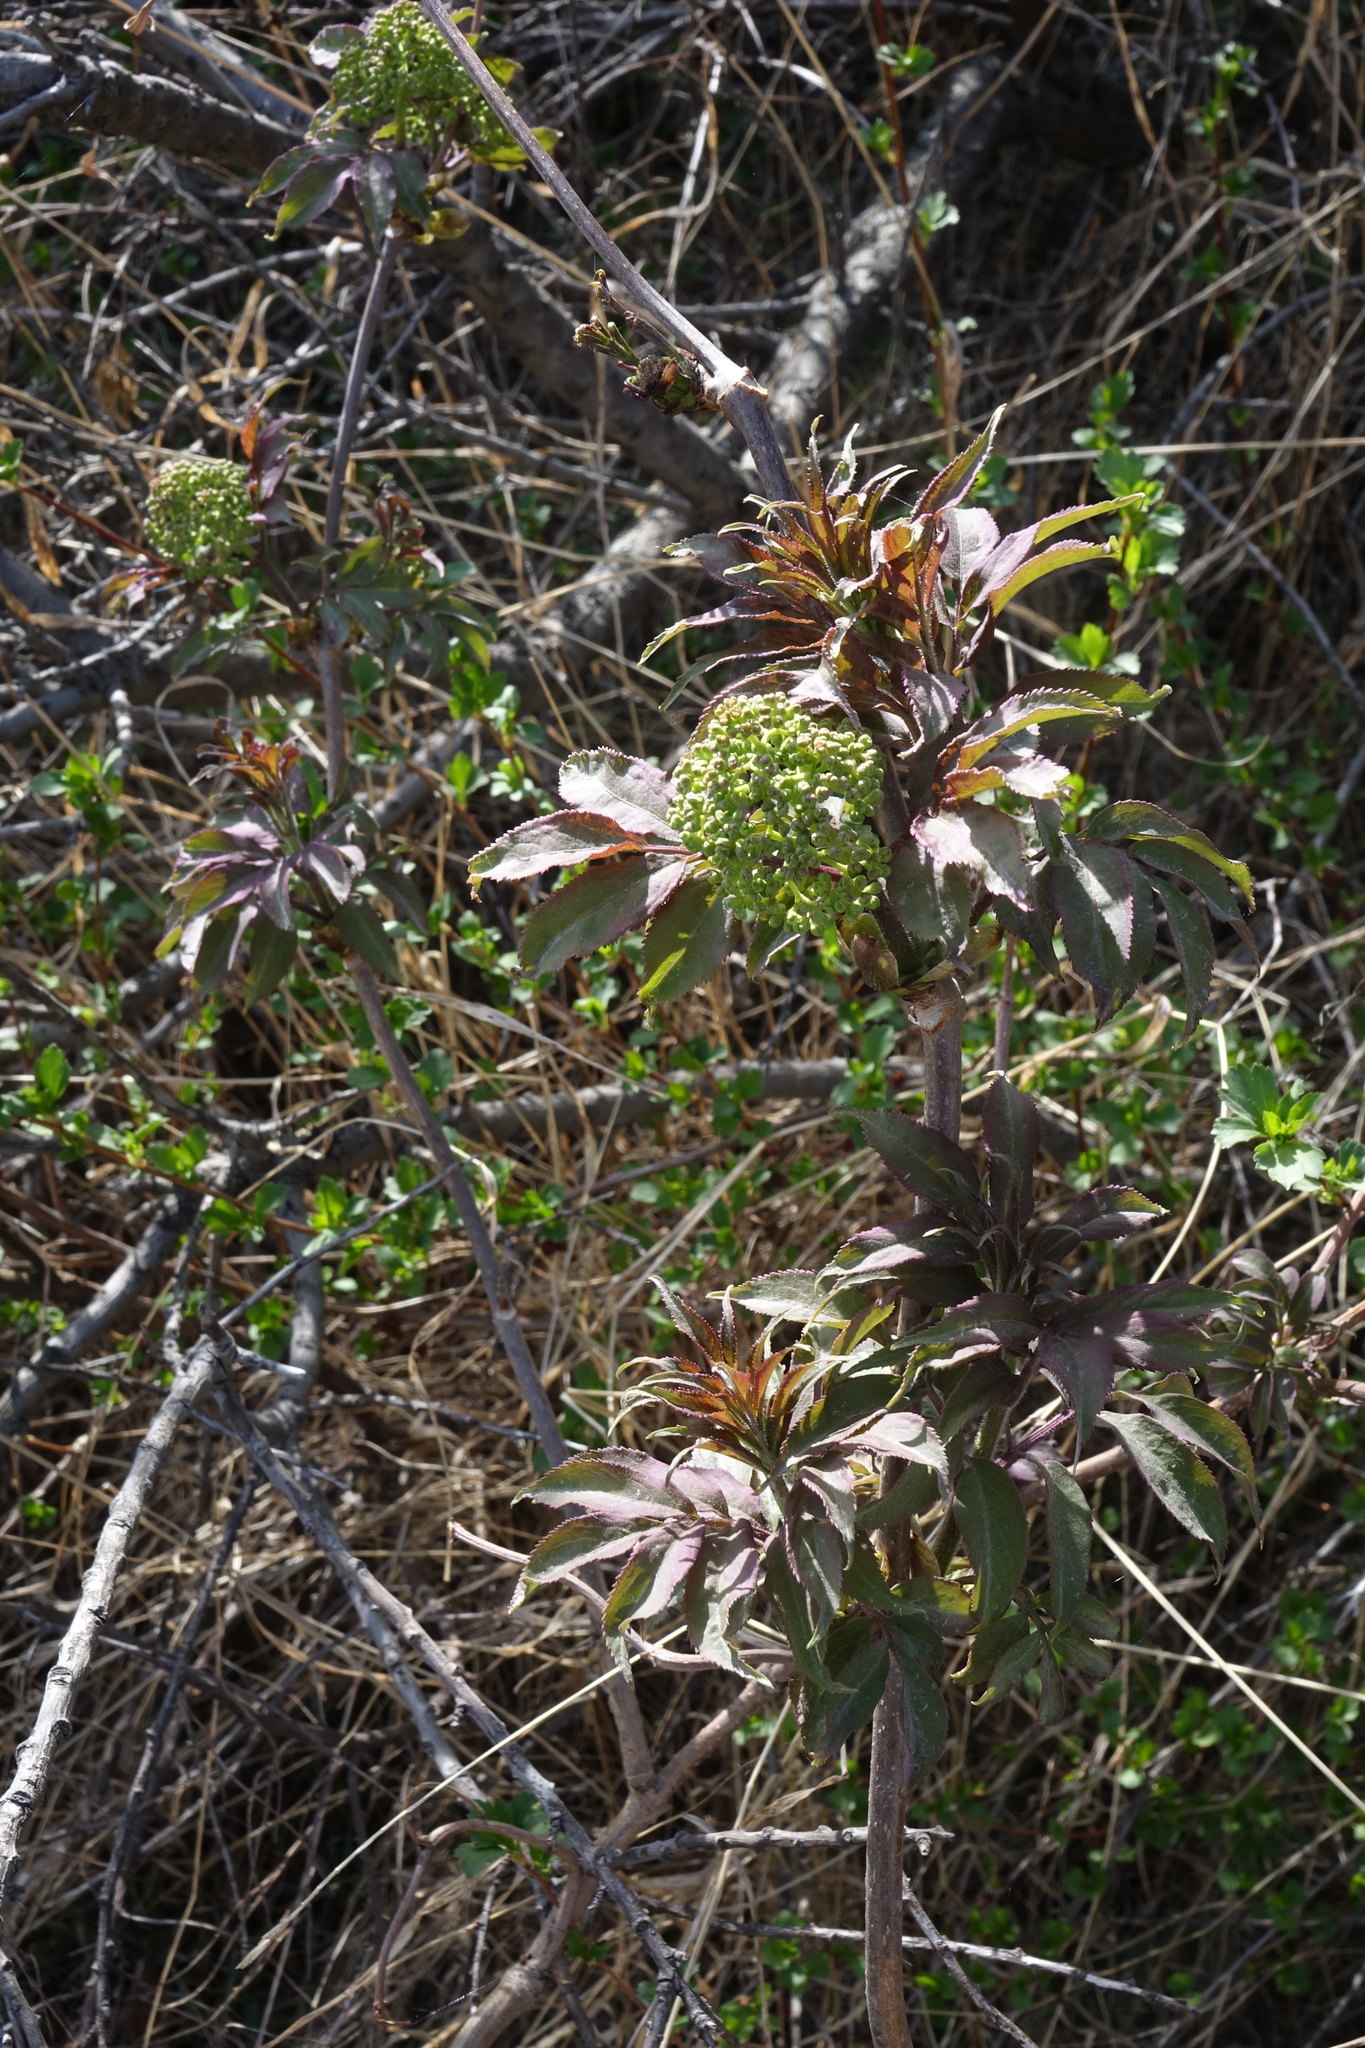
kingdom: Plantae
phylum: Tracheophyta
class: Magnoliopsida
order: Dipsacales
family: Viburnaceae
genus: Sambucus
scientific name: Sambucus sibirica
